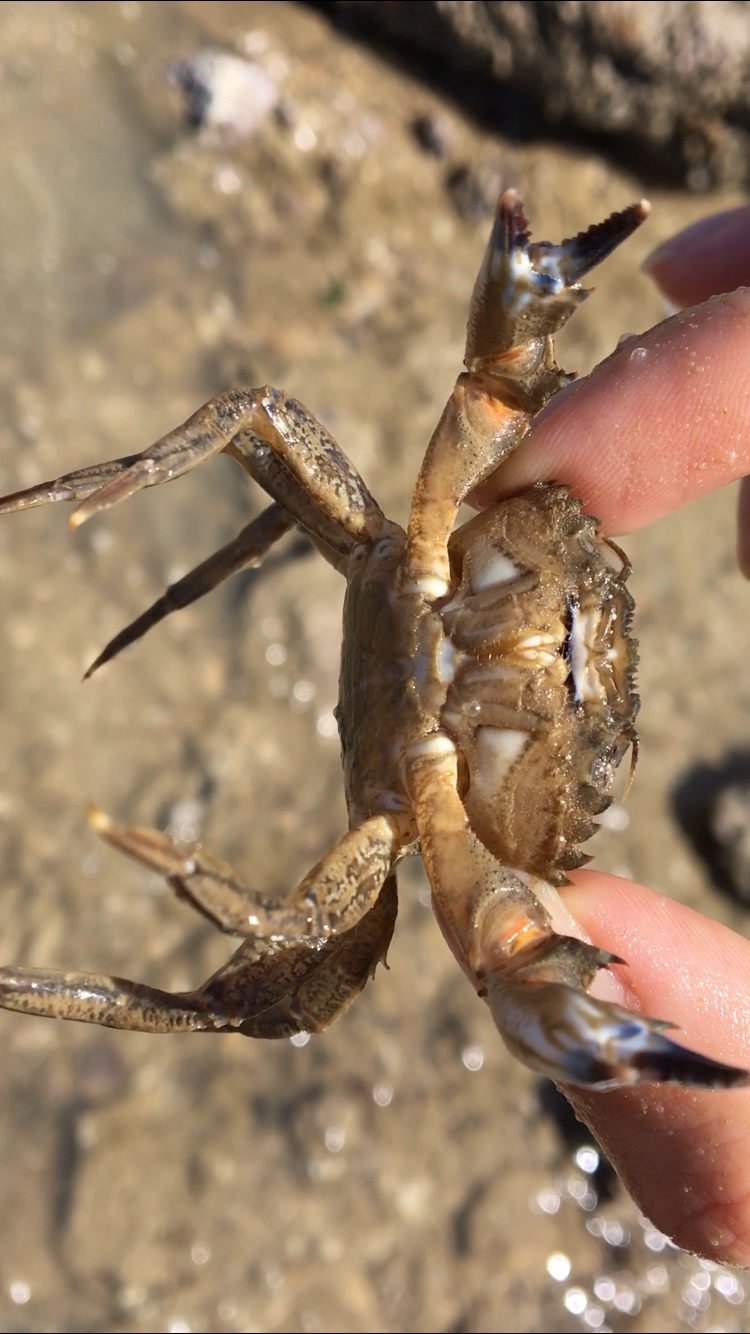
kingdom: Animalia
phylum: Arthropoda
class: Malacostraca
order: Decapoda
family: Polybiidae
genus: Necora
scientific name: Necora puber
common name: Velvet swimming crab
